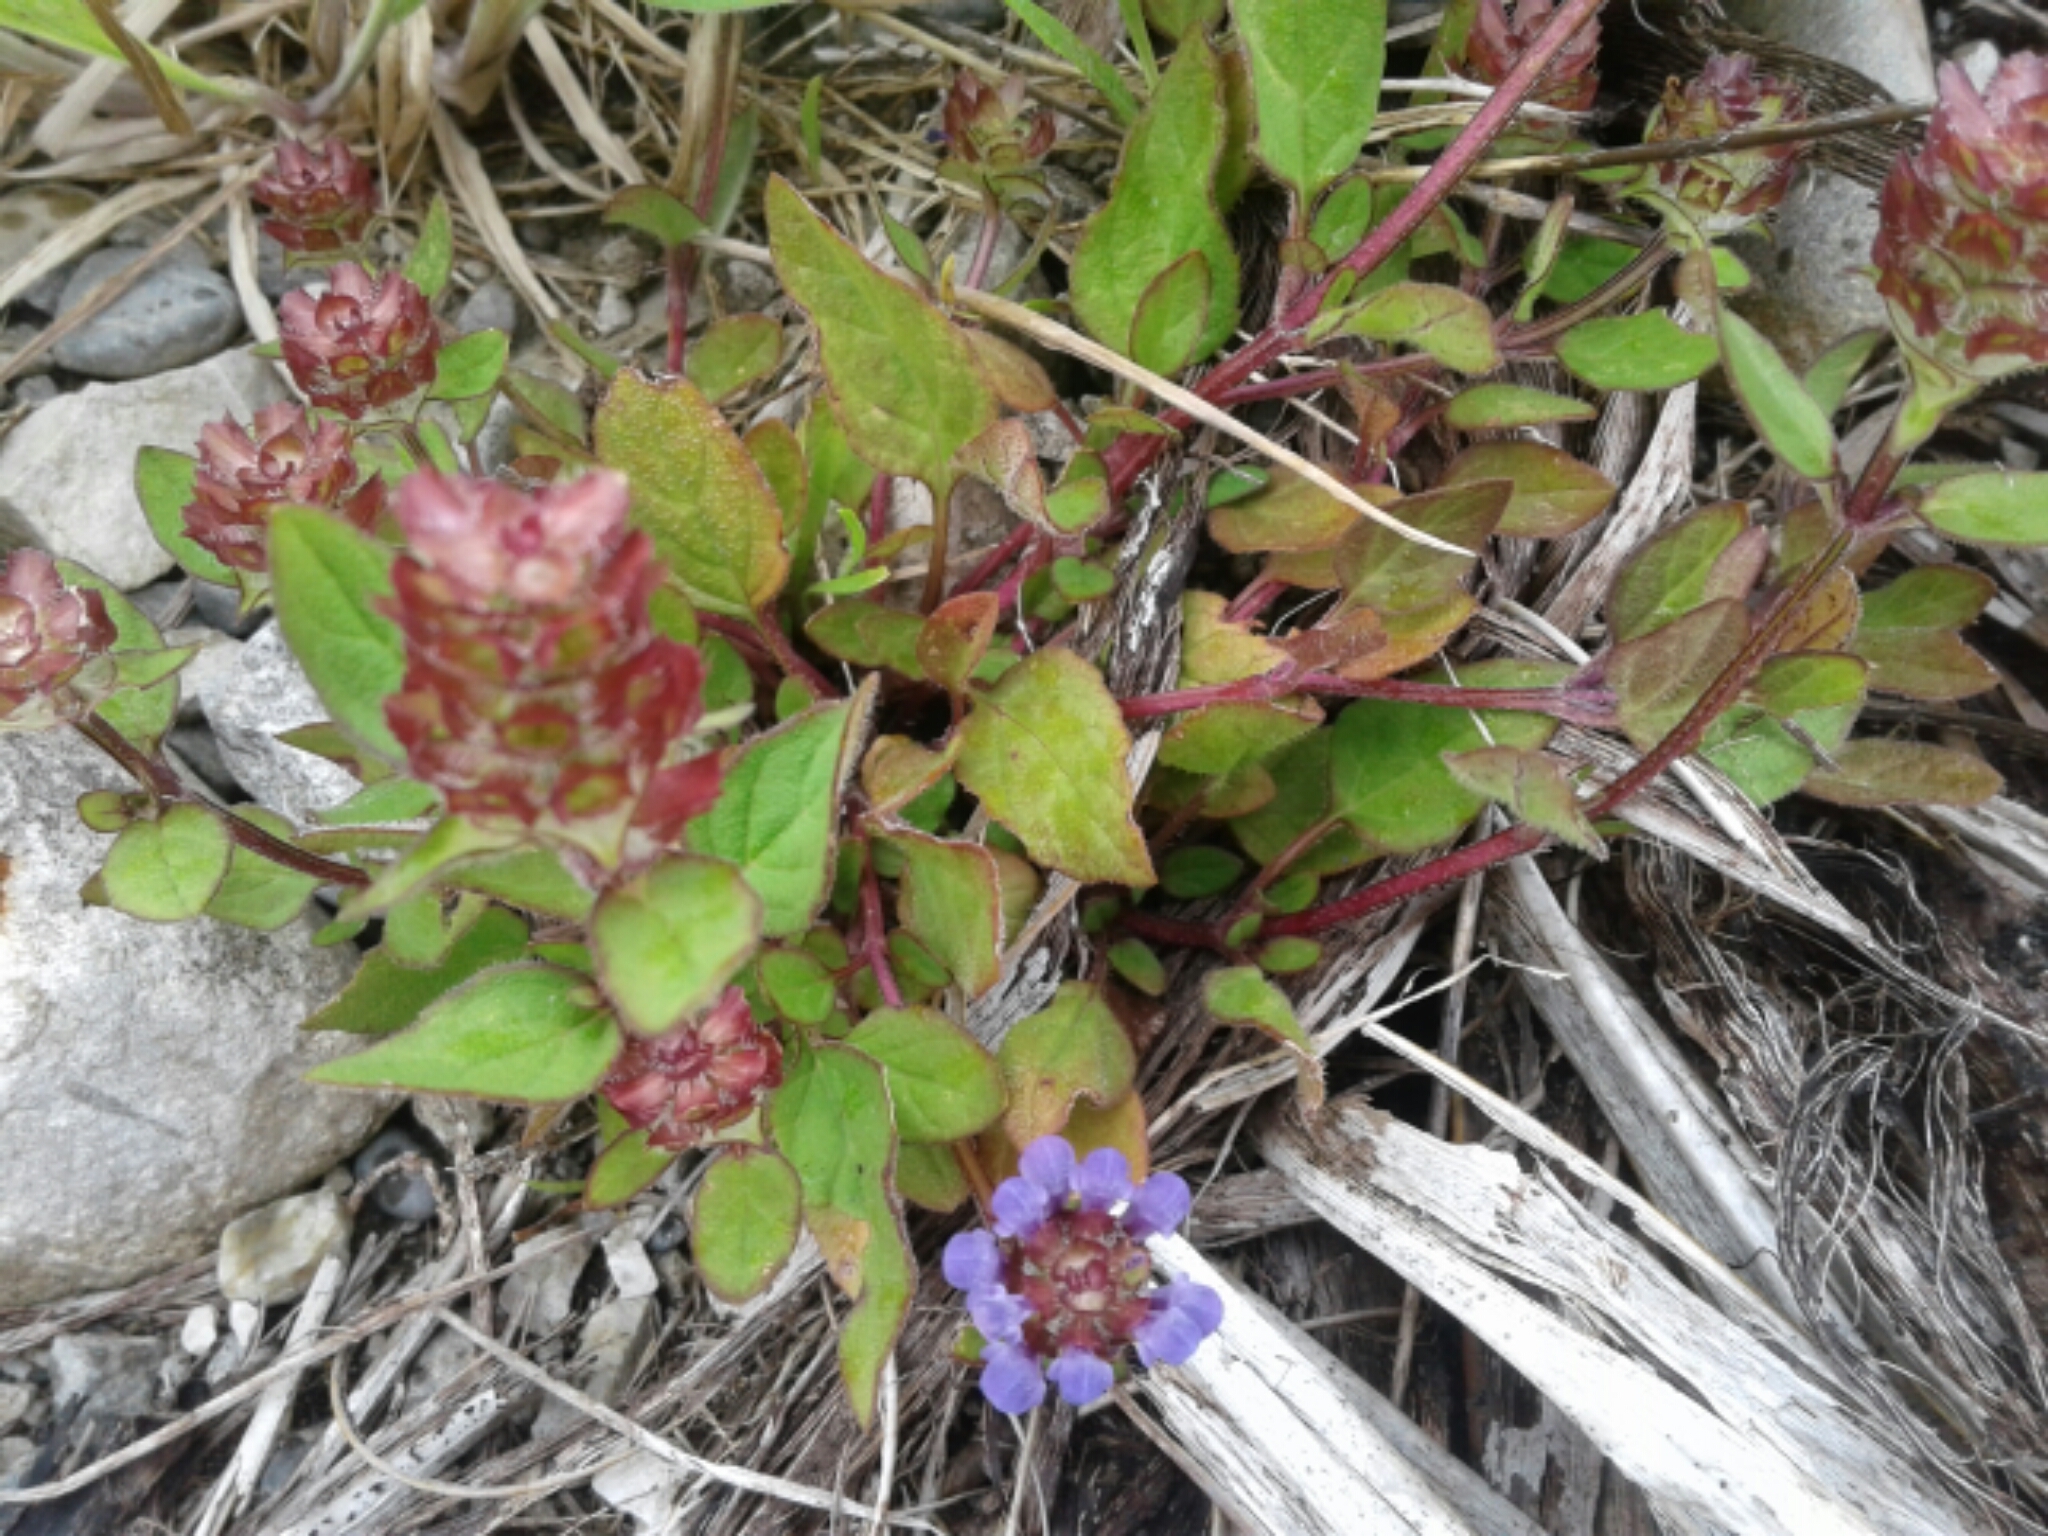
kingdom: Plantae
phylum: Tracheophyta
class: Magnoliopsida
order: Lamiales
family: Lamiaceae
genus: Prunella
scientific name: Prunella vulgaris
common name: Heal-all
